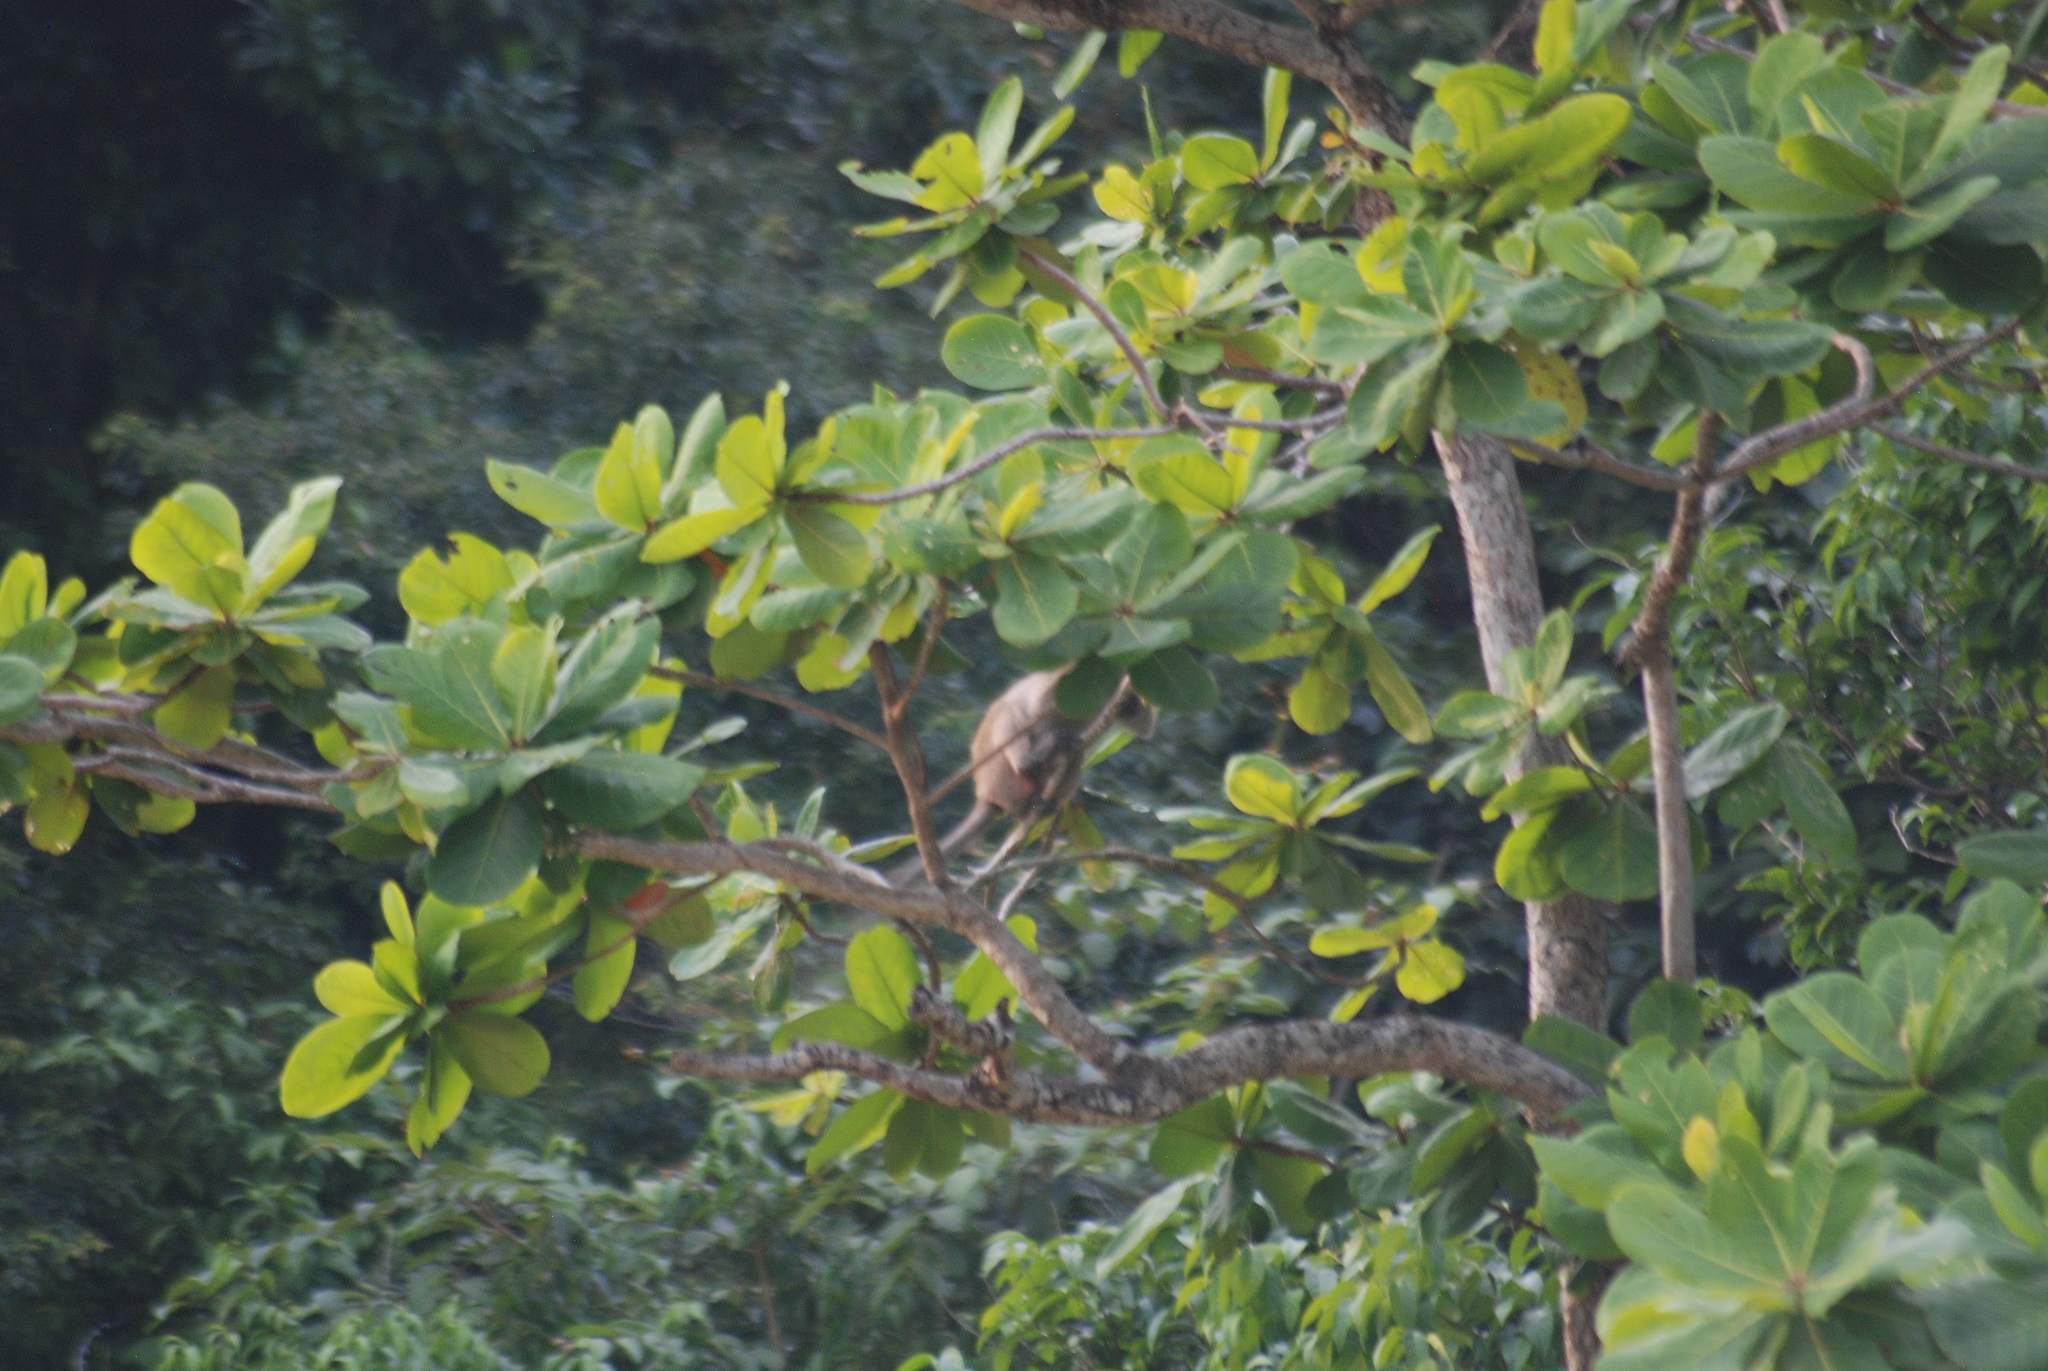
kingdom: Plantae
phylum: Tracheophyta
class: Magnoliopsida
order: Myrtales
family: Combretaceae
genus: Terminalia
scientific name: Terminalia catappa
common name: Tropical almond
